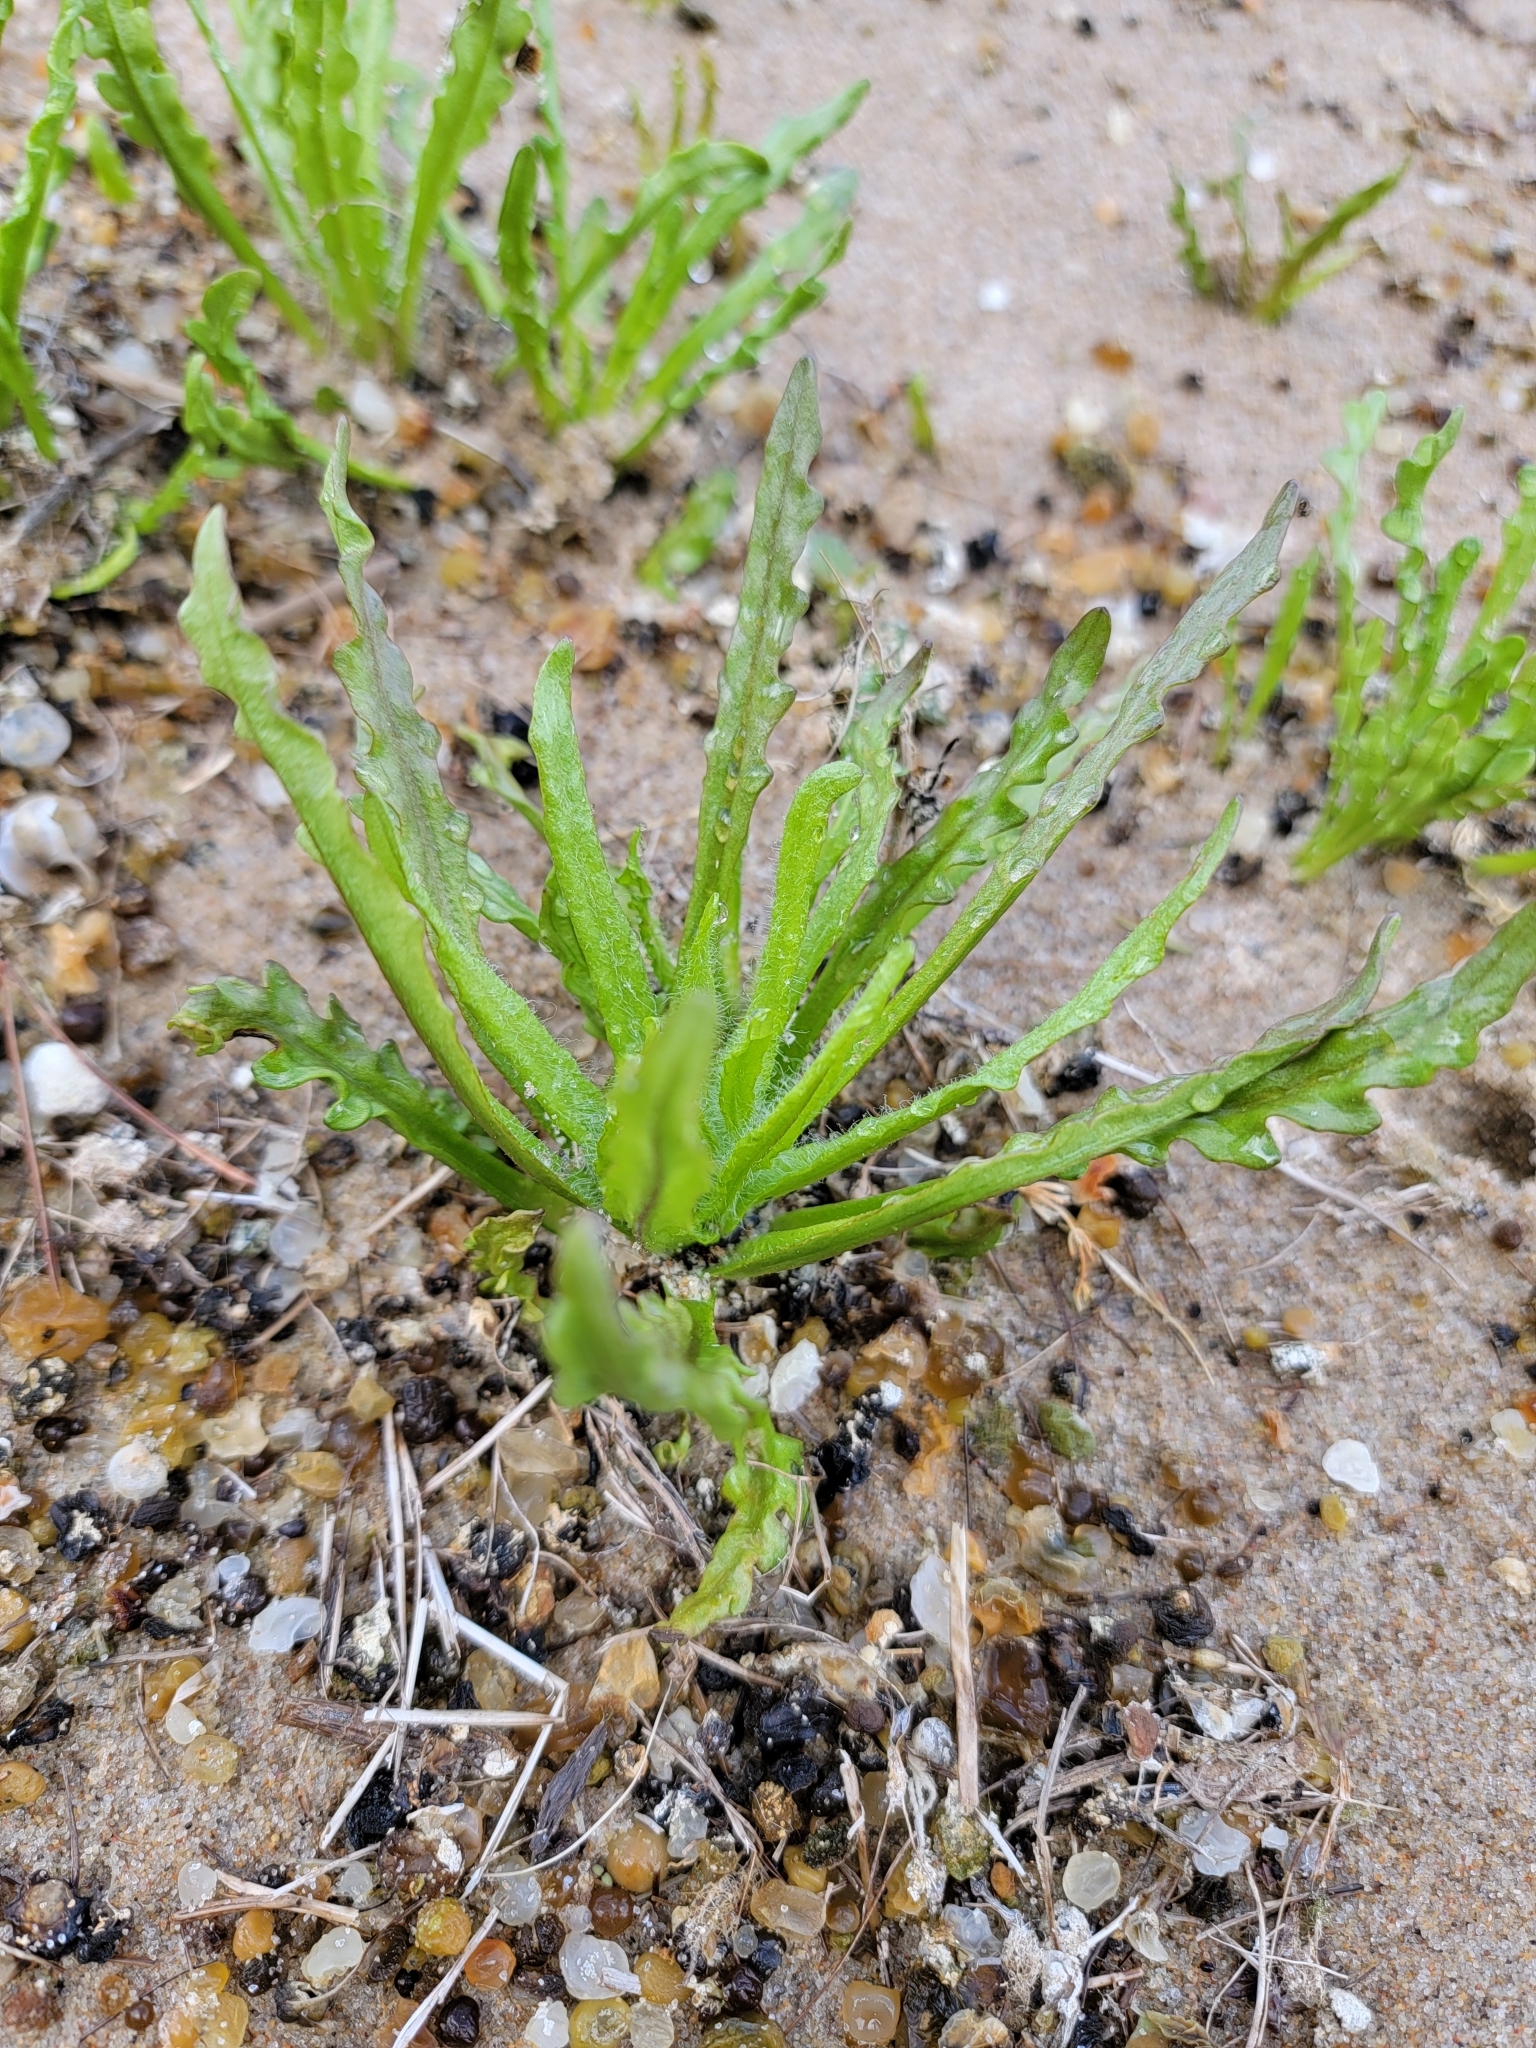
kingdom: Plantae
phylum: Tracheophyta
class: Magnoliopsida
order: Asterales
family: Asteraceae
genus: Tephroseris
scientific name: Tephroseris palustris
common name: Marsh fleawort
